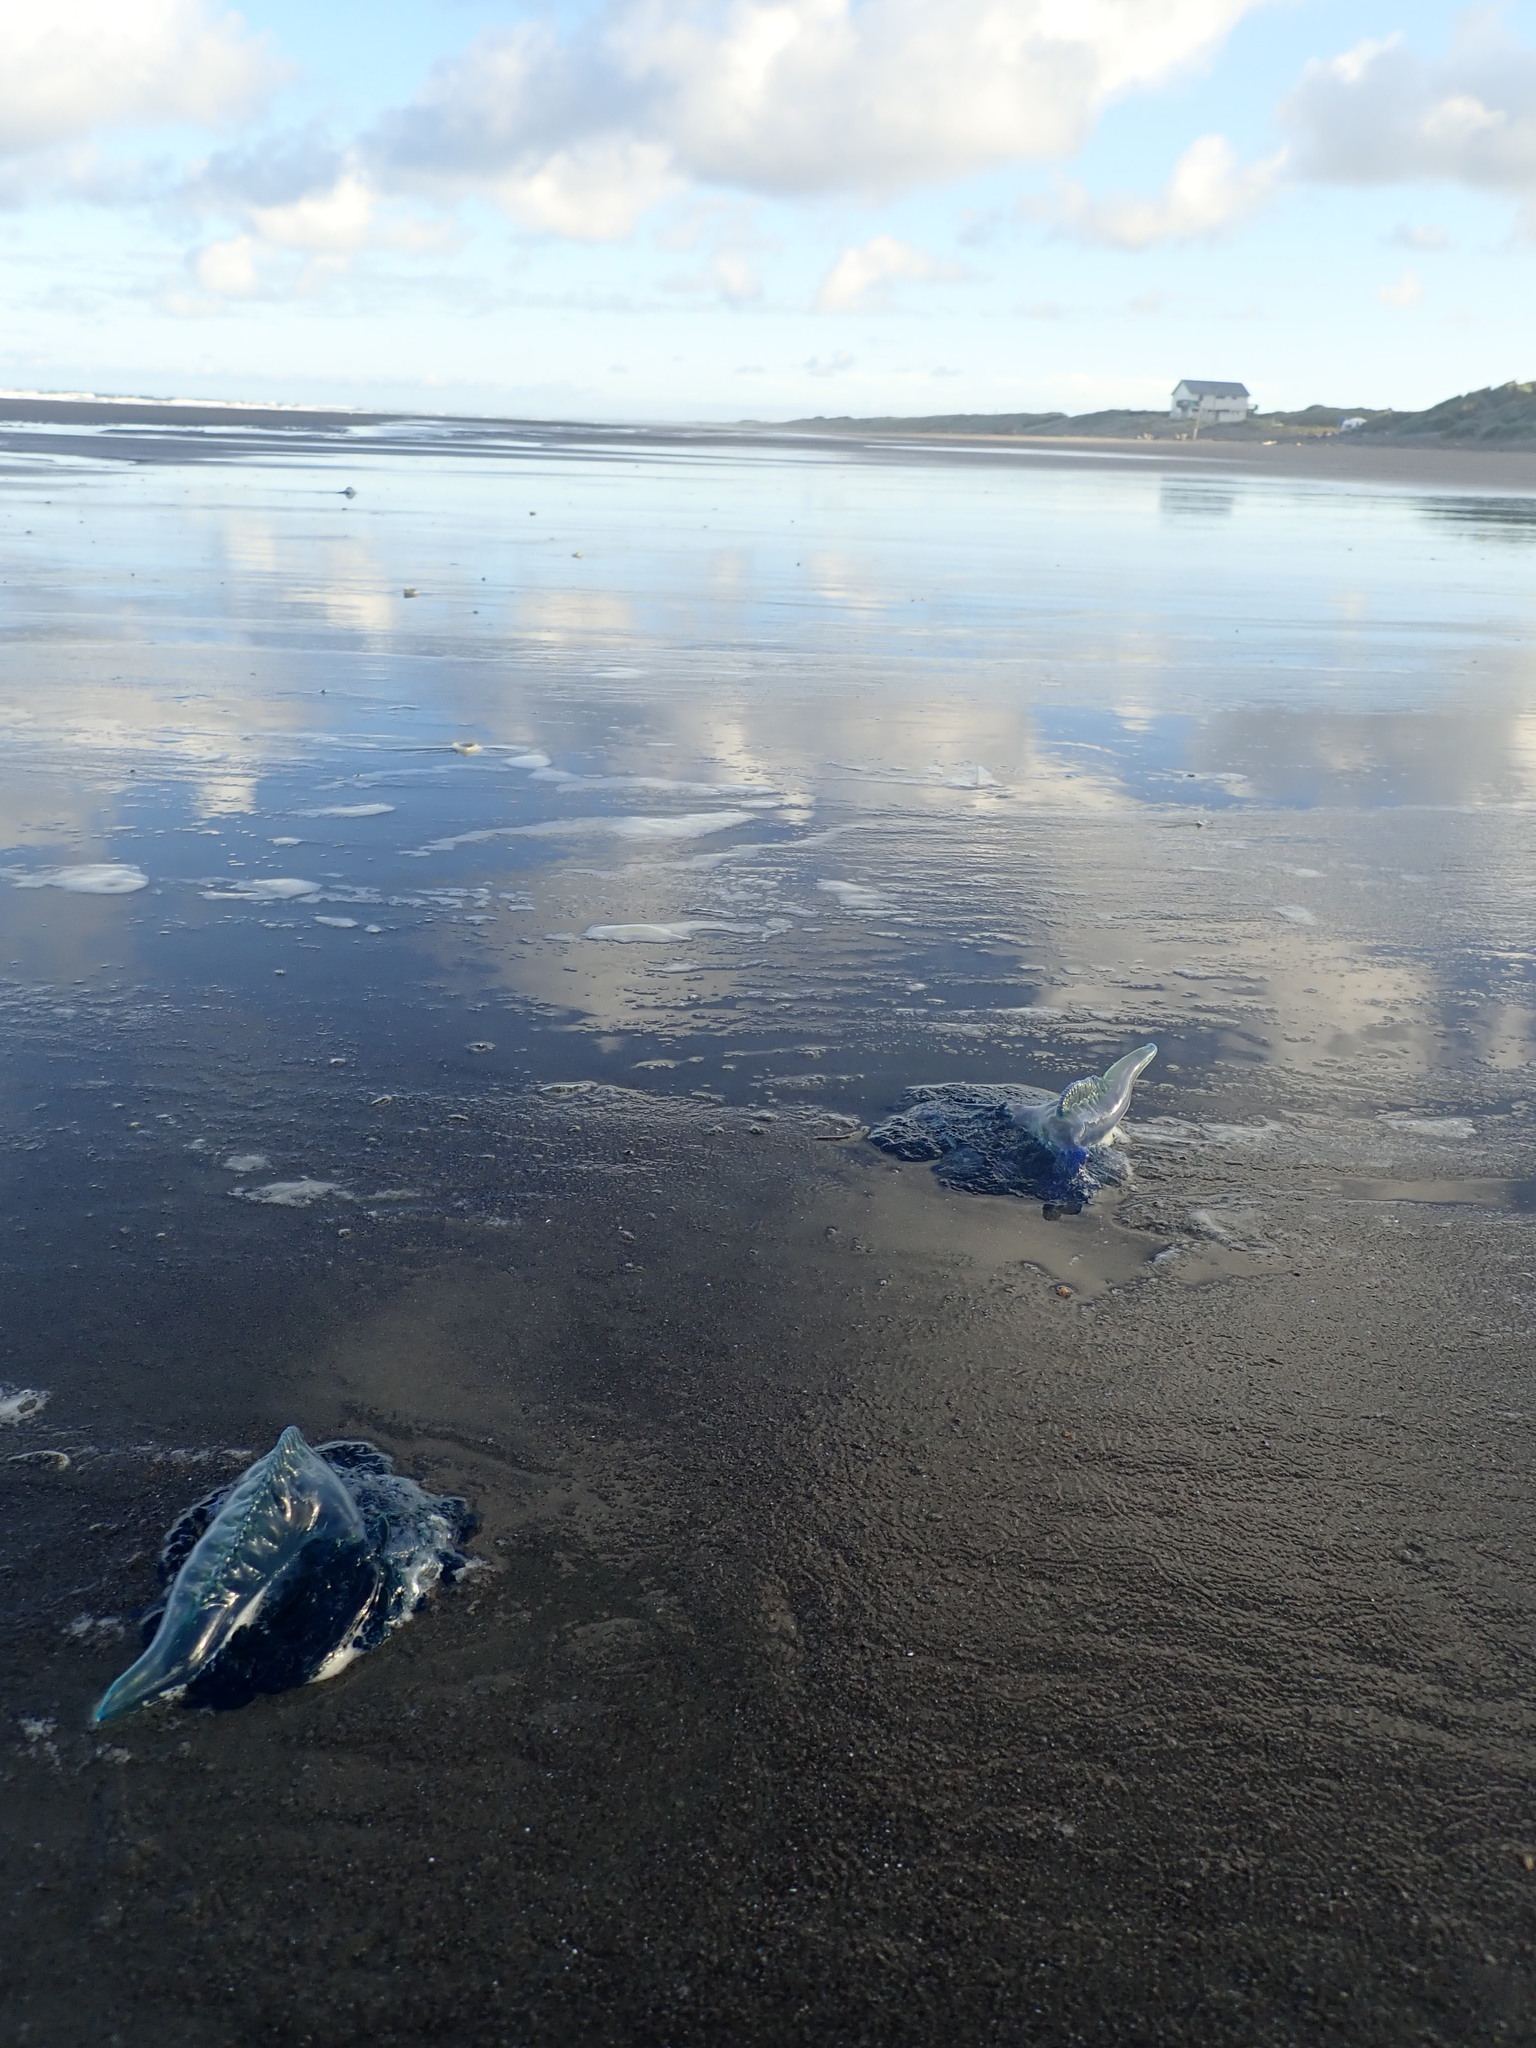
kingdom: Animalia
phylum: Cnidaria
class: Hydrozoa
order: Siphonophorae
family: Physaliidae
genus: Physalia
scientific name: Physalia physalis
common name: Portuguese man-of-war
